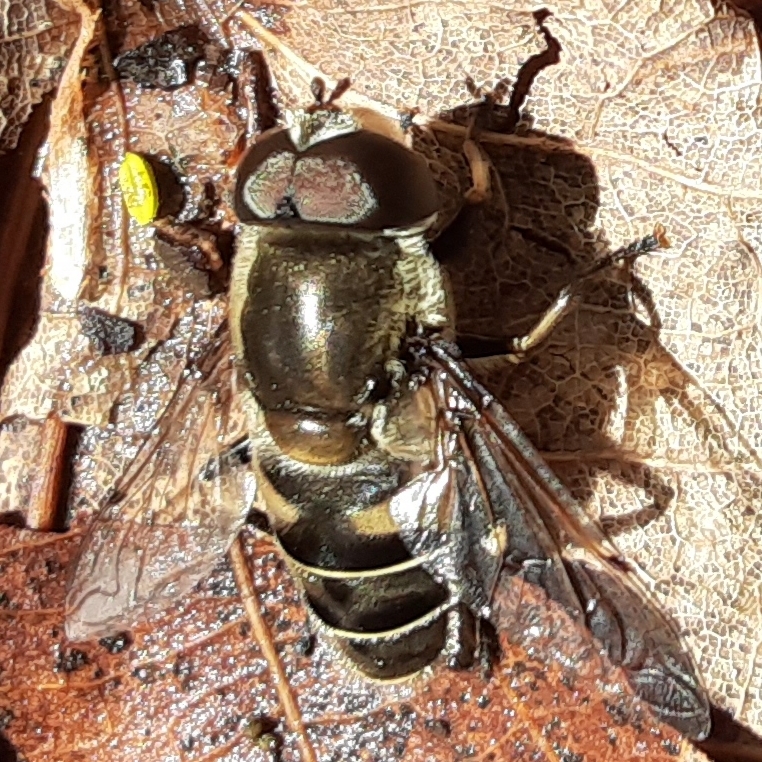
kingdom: Animalia
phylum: Arthropoda
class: Insecta
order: Diptera
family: Syrphidae
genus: Eristalis
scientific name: Eristalis dimidiata
